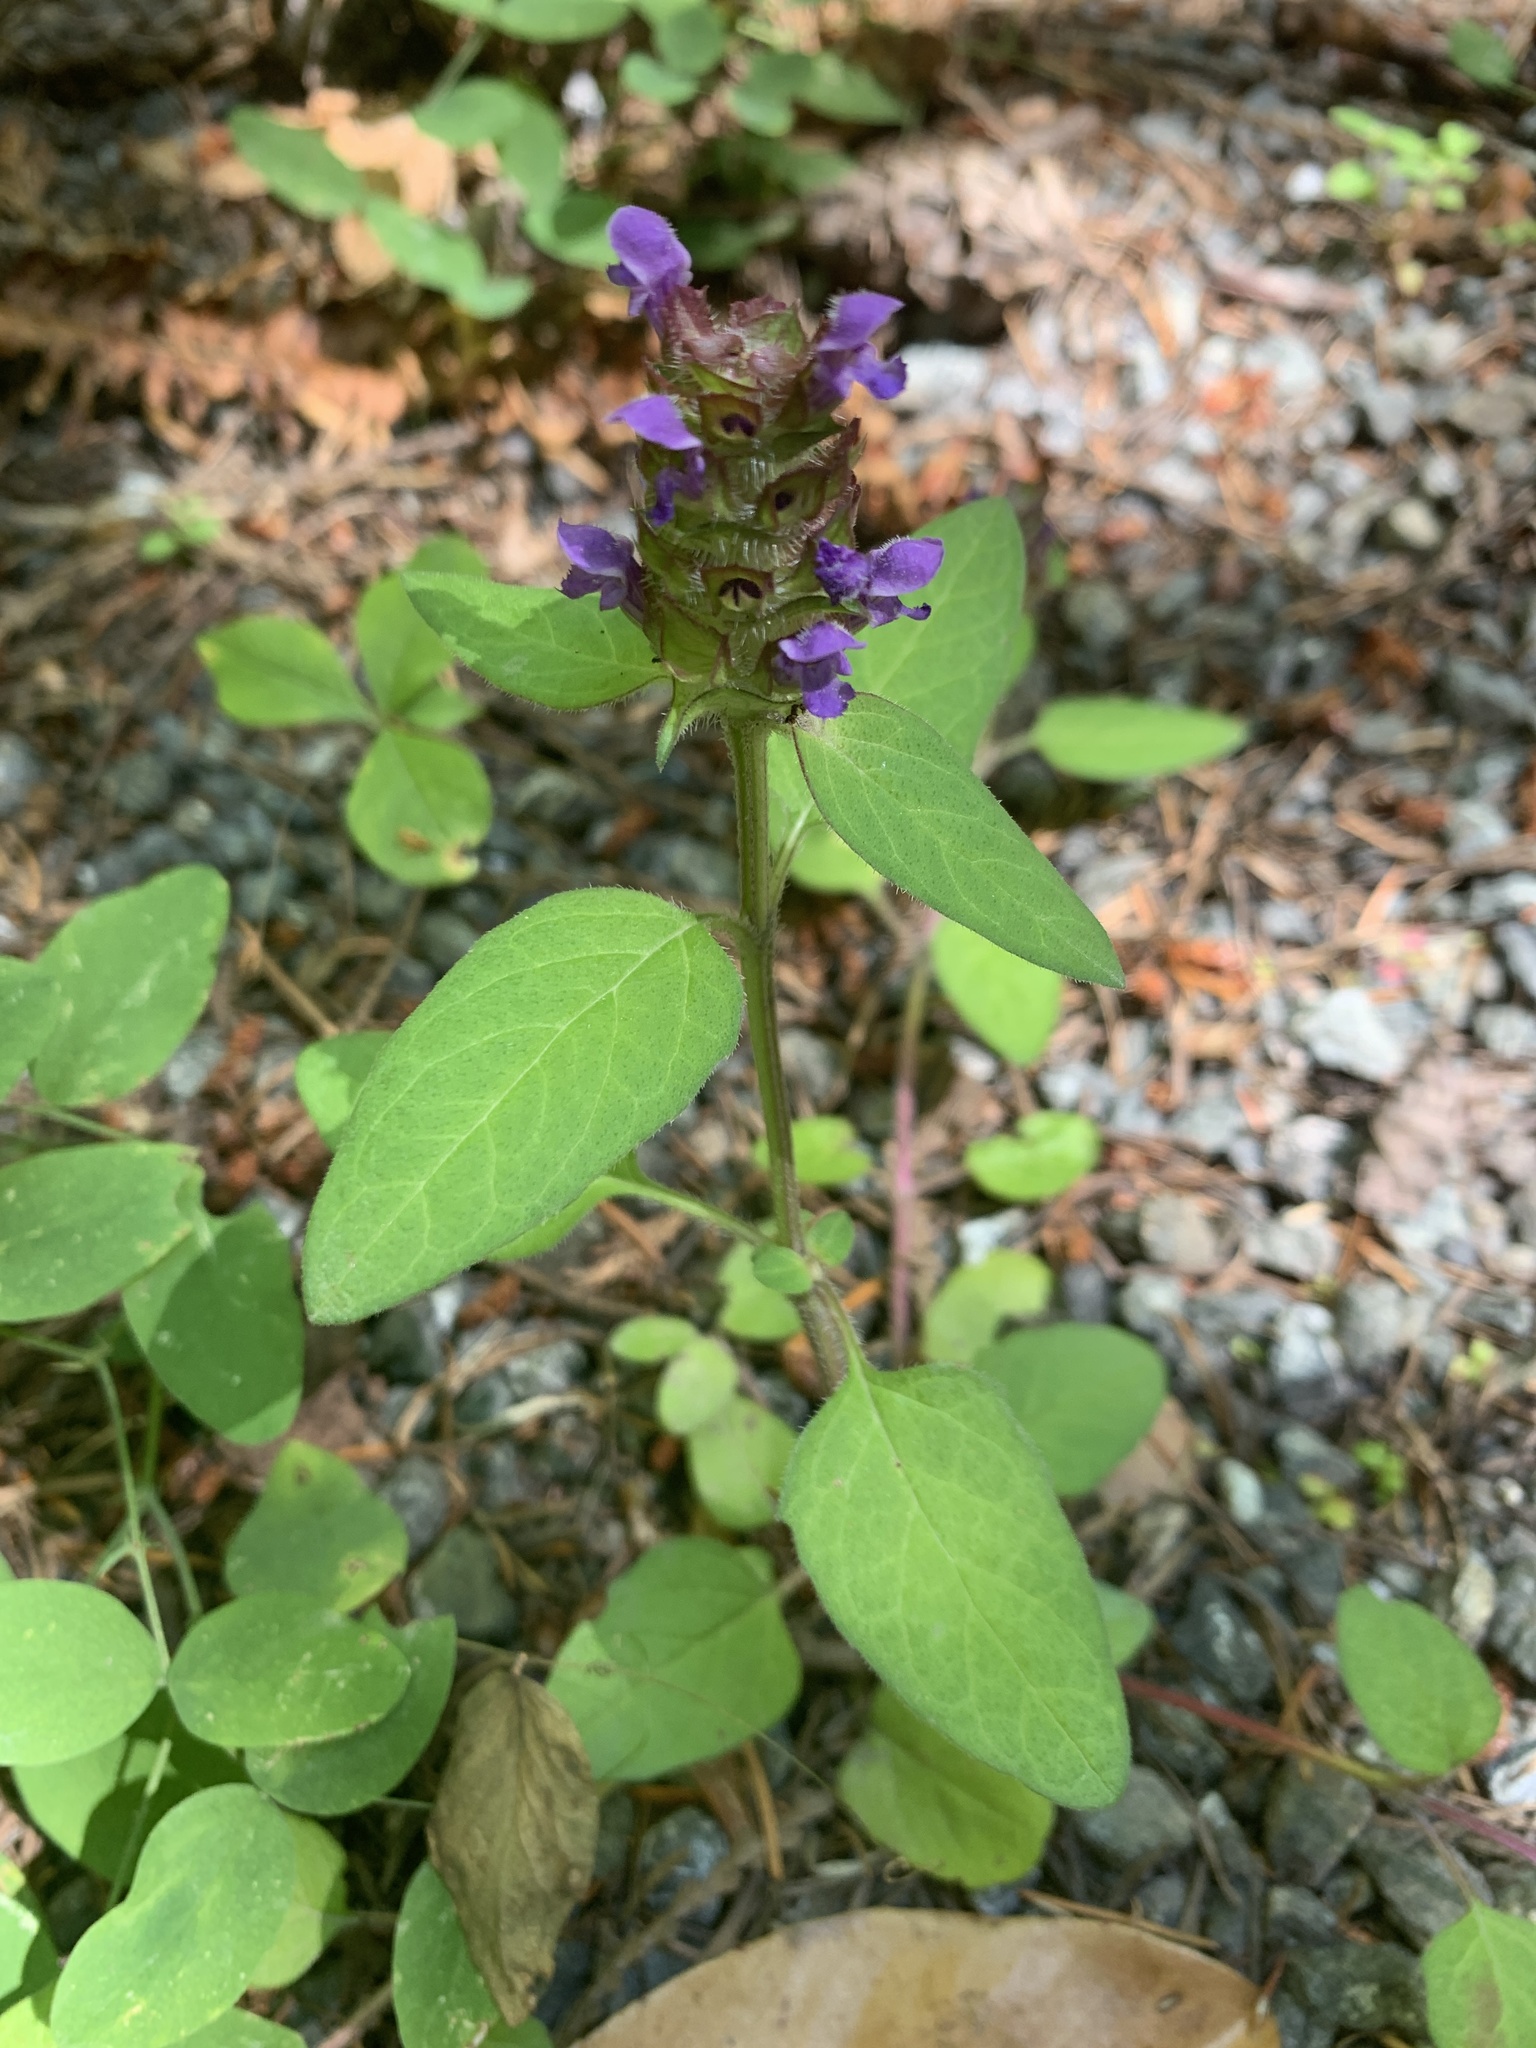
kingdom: Plantae
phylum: Tracheophyta
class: Magnoliopsida
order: Lamiales
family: Lamiaceae
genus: Prunella
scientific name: Prunella vulgaris
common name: Heal-all
